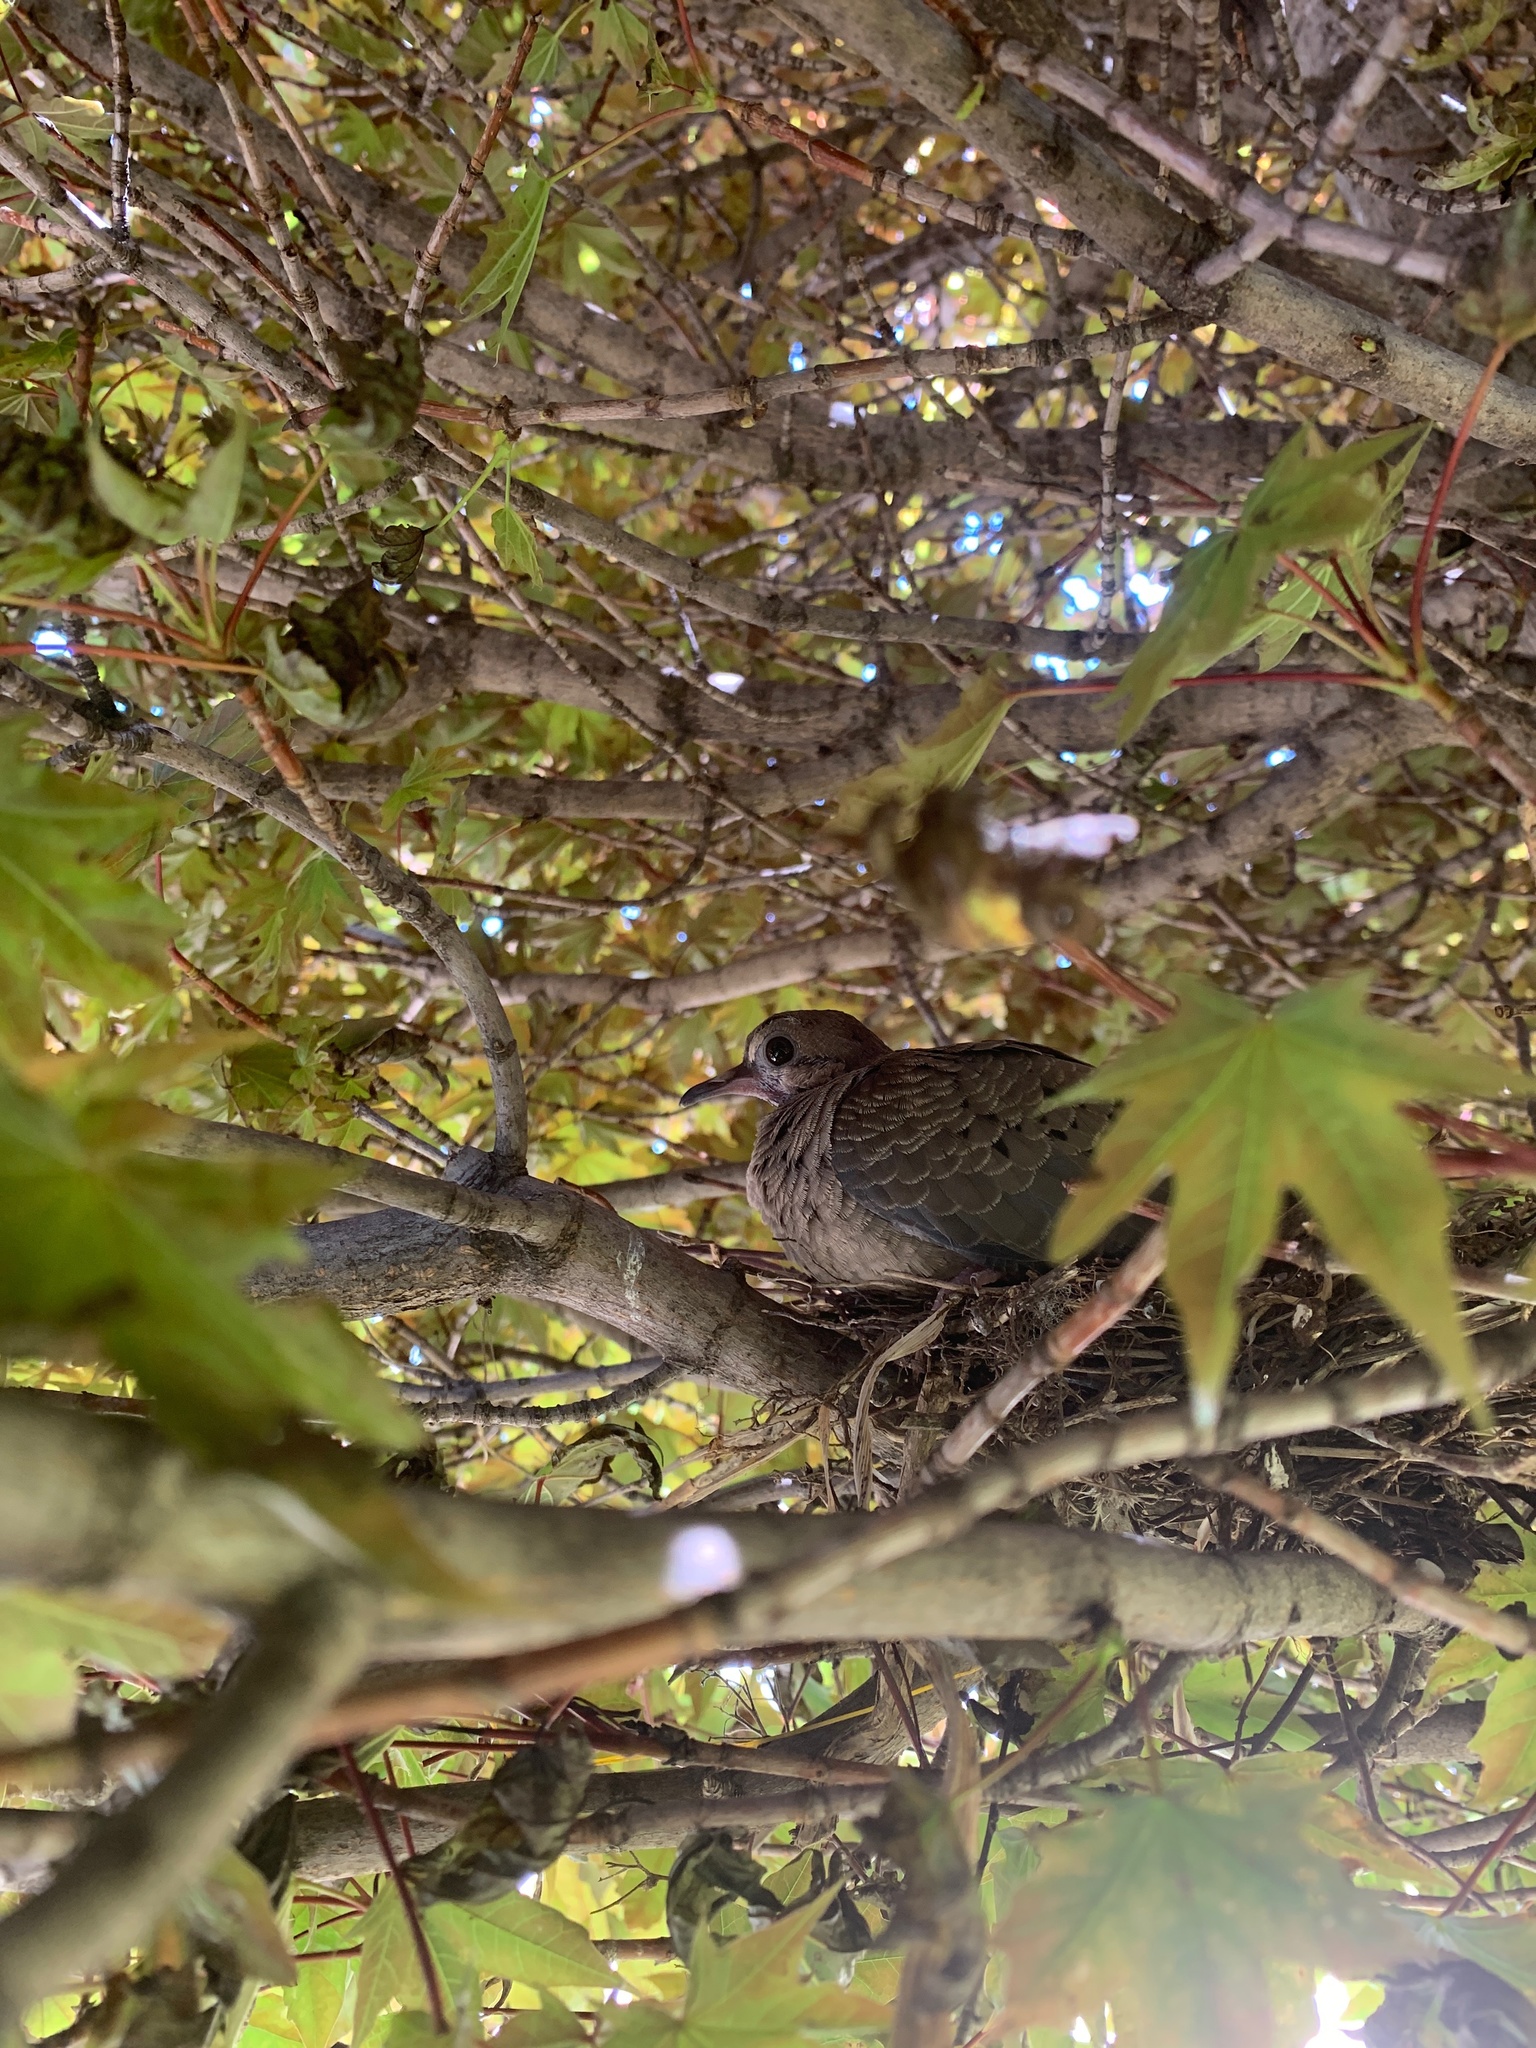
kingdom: Animalia
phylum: Chordata
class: Aves
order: Columbiformes
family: Columbidae
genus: Zenaida
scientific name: Zenaida macroura
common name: Mourning dove
